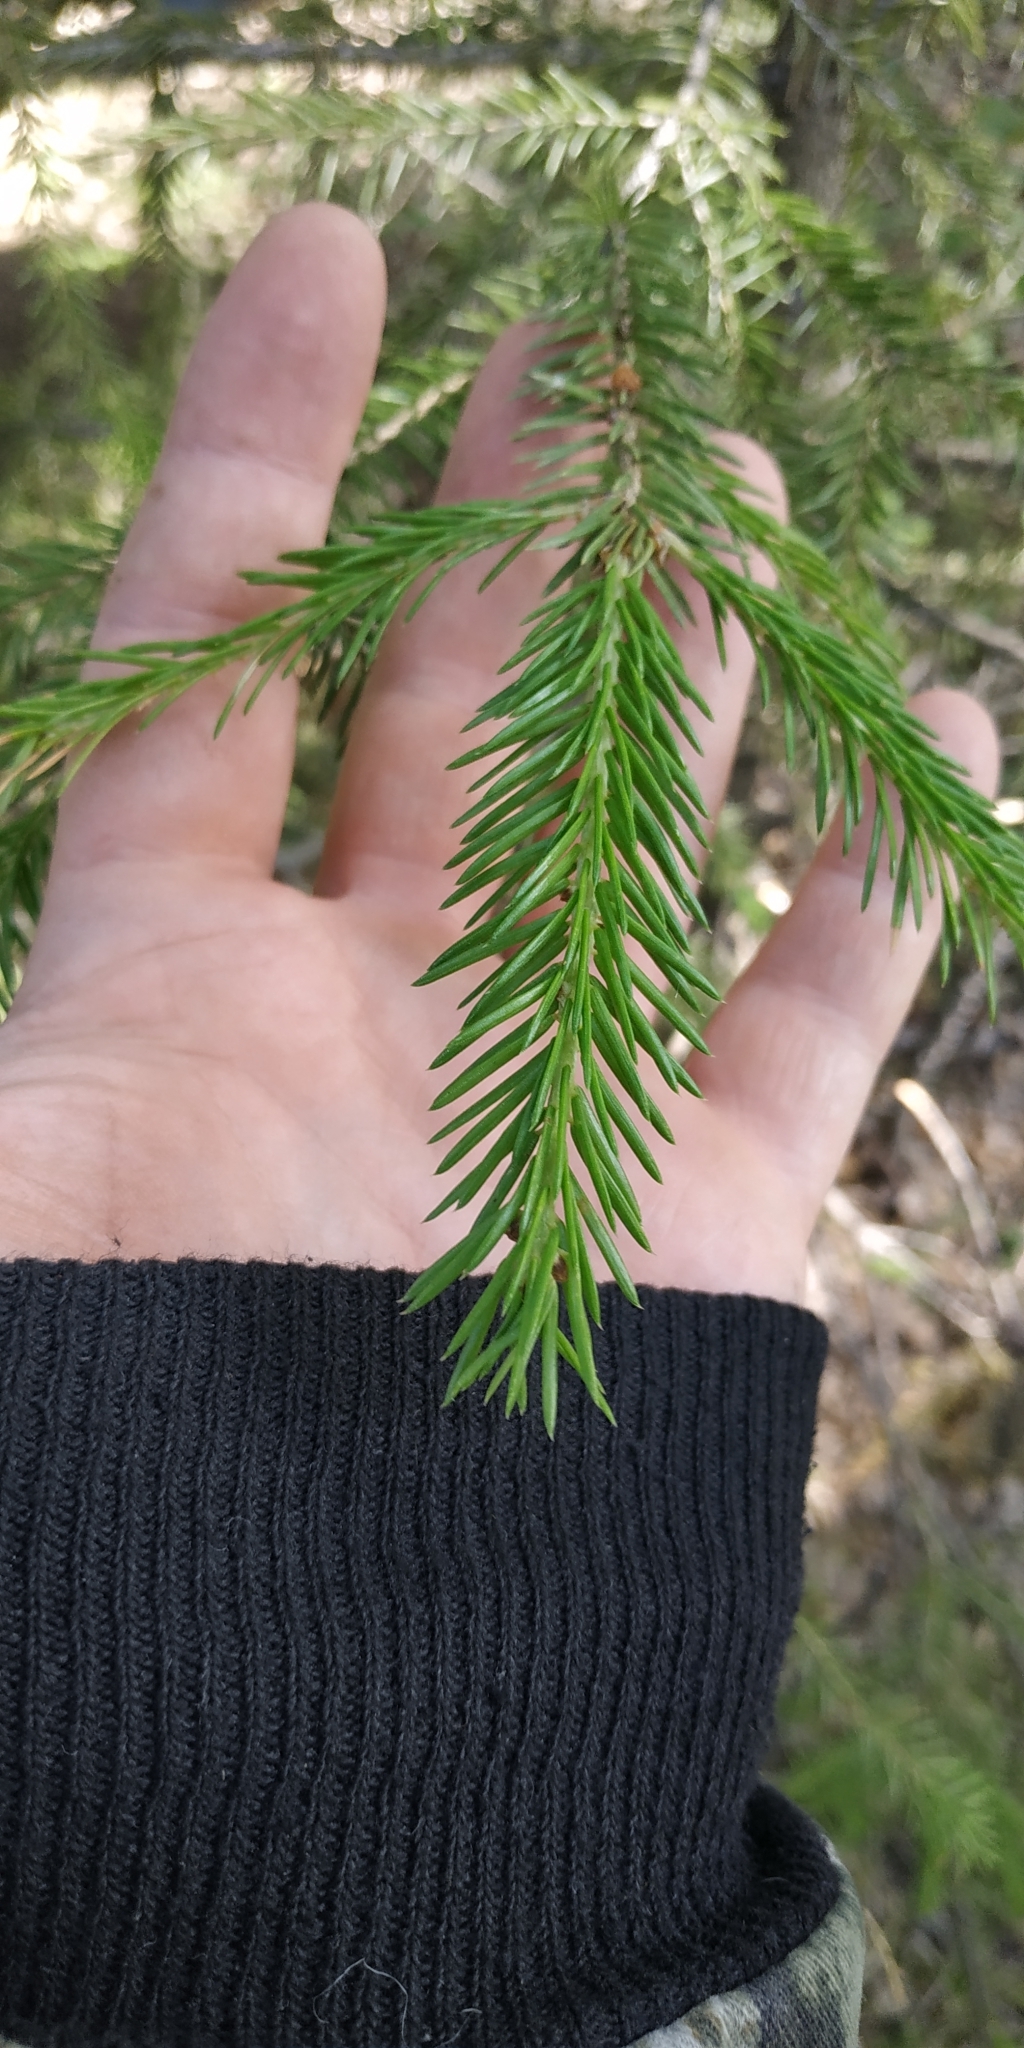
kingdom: Plantae
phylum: Tracheophyta
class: Pinopsida
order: Pinales
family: Pinaceae
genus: Picea
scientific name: Picea obovata
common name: Siberian spruce
